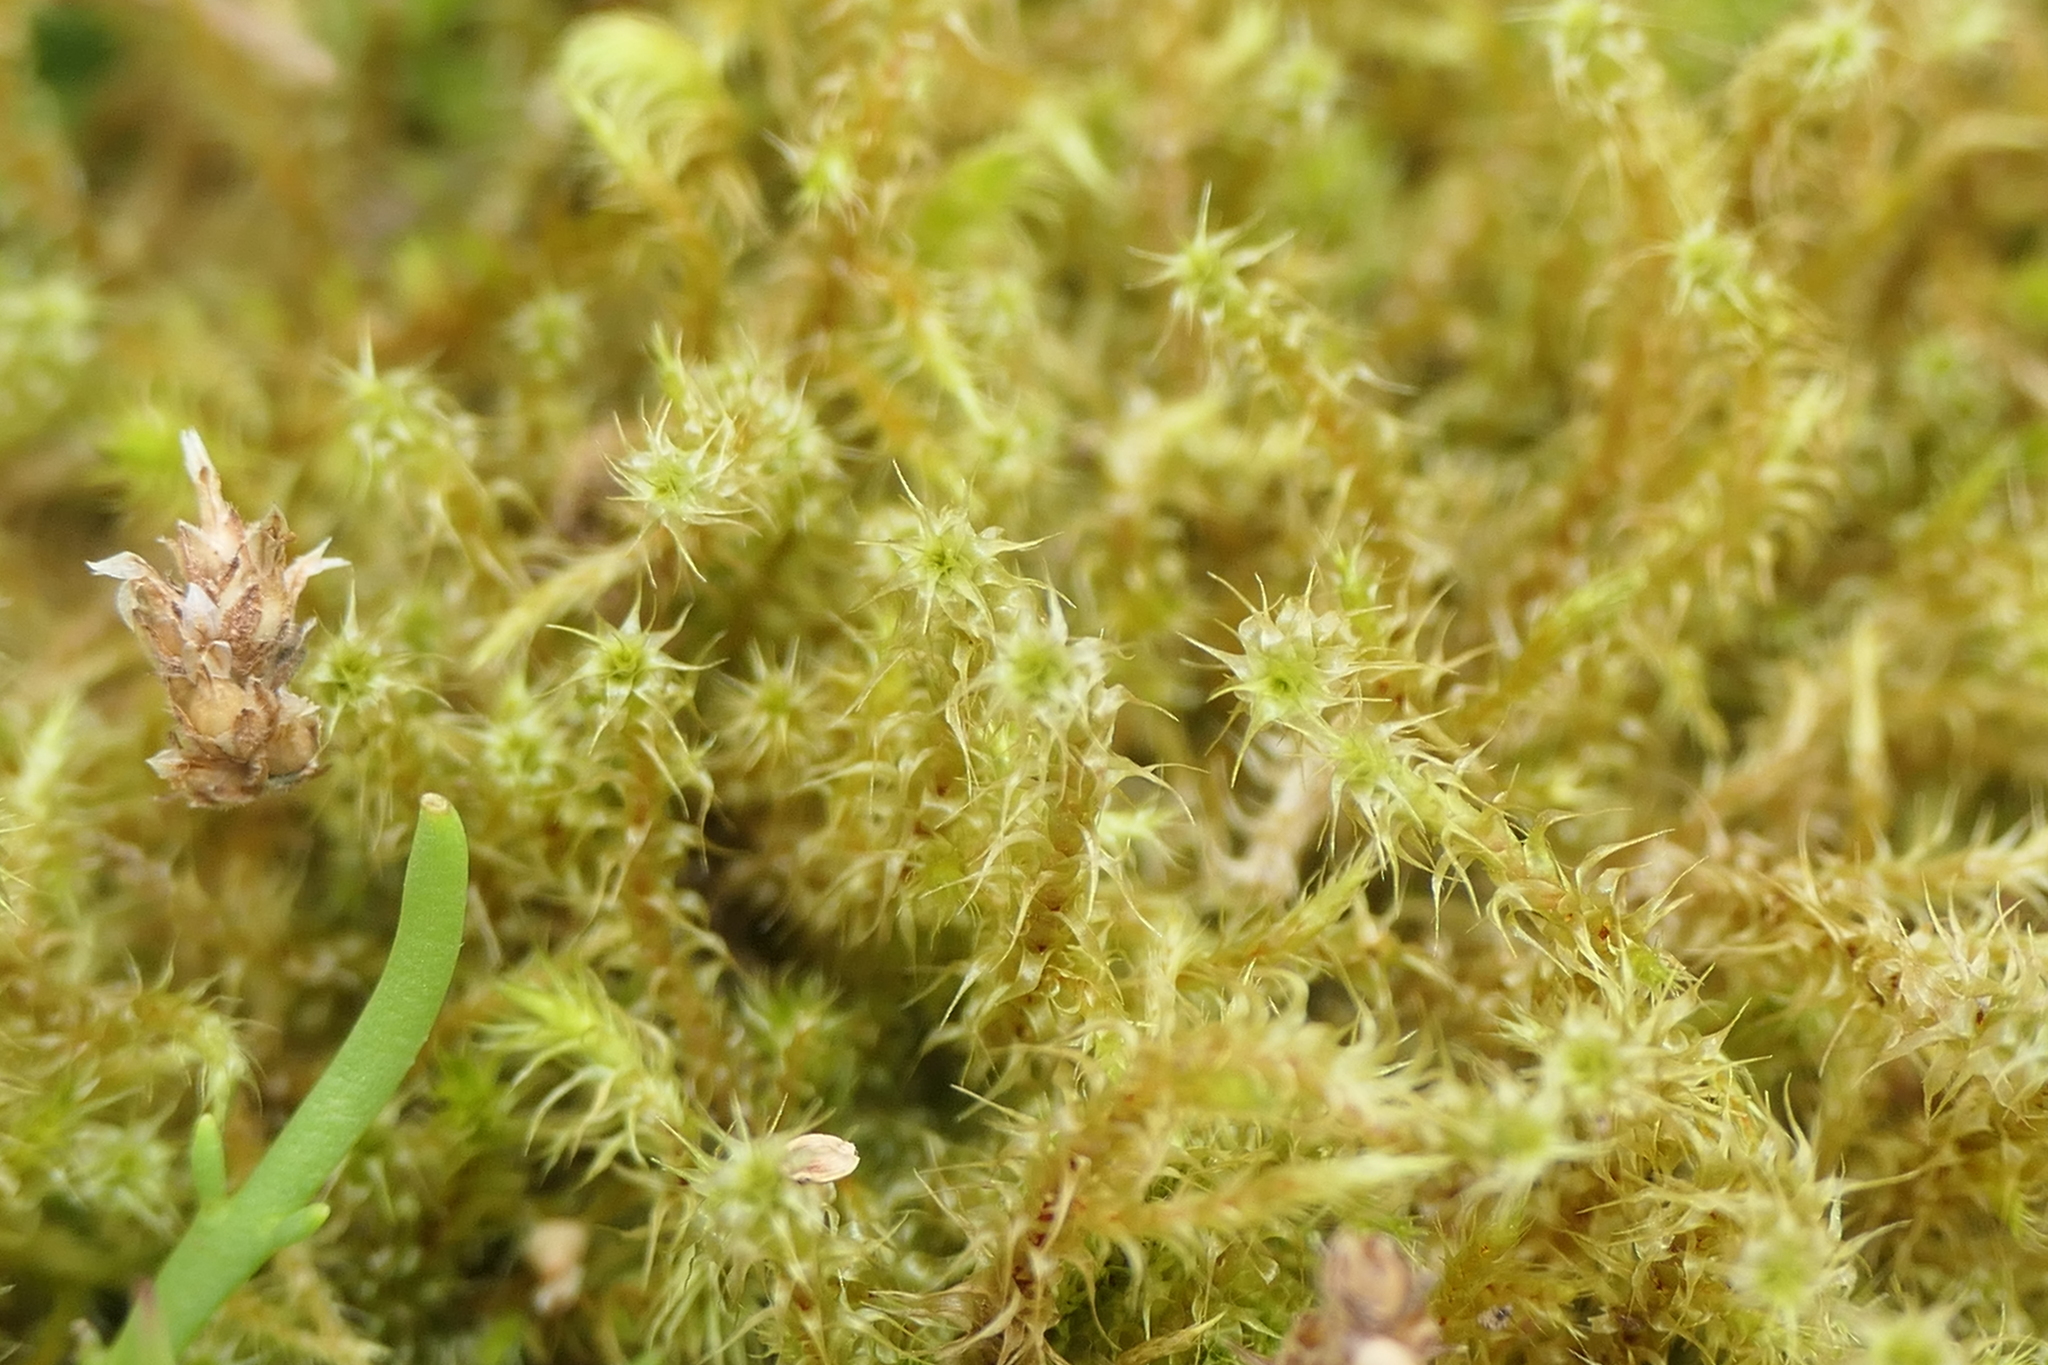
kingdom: Plantae
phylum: Bryophyta
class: Bryopsida
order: Hypnales
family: Hylocomiaceae
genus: Rhytidiadelphus
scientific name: Rhytidiadelphus squarrosus
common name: Springy turf-moss
